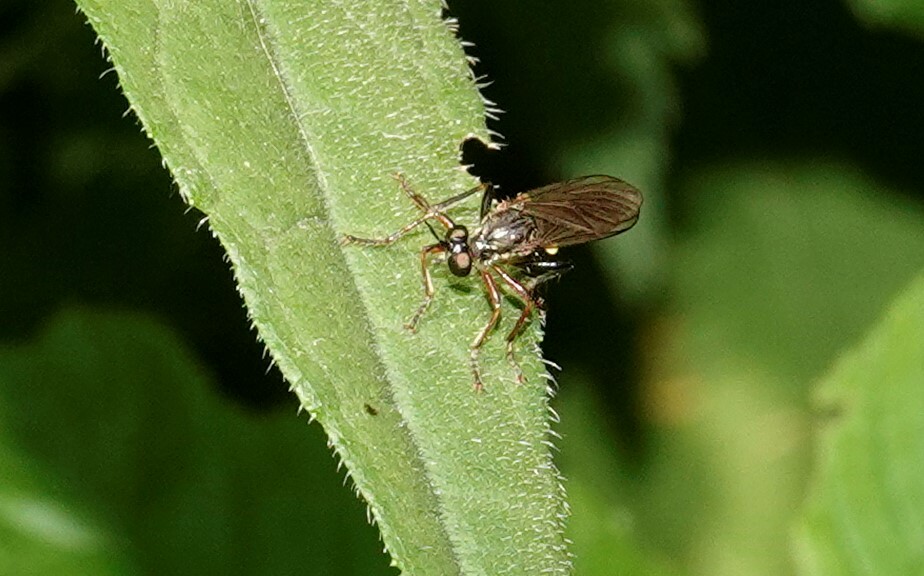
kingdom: Animalia
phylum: Arthropoda
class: Insecta
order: Diptera
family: Asilidae
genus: Dioctria
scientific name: Dioctria hyalipennis
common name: Stripe-legged robberfly
